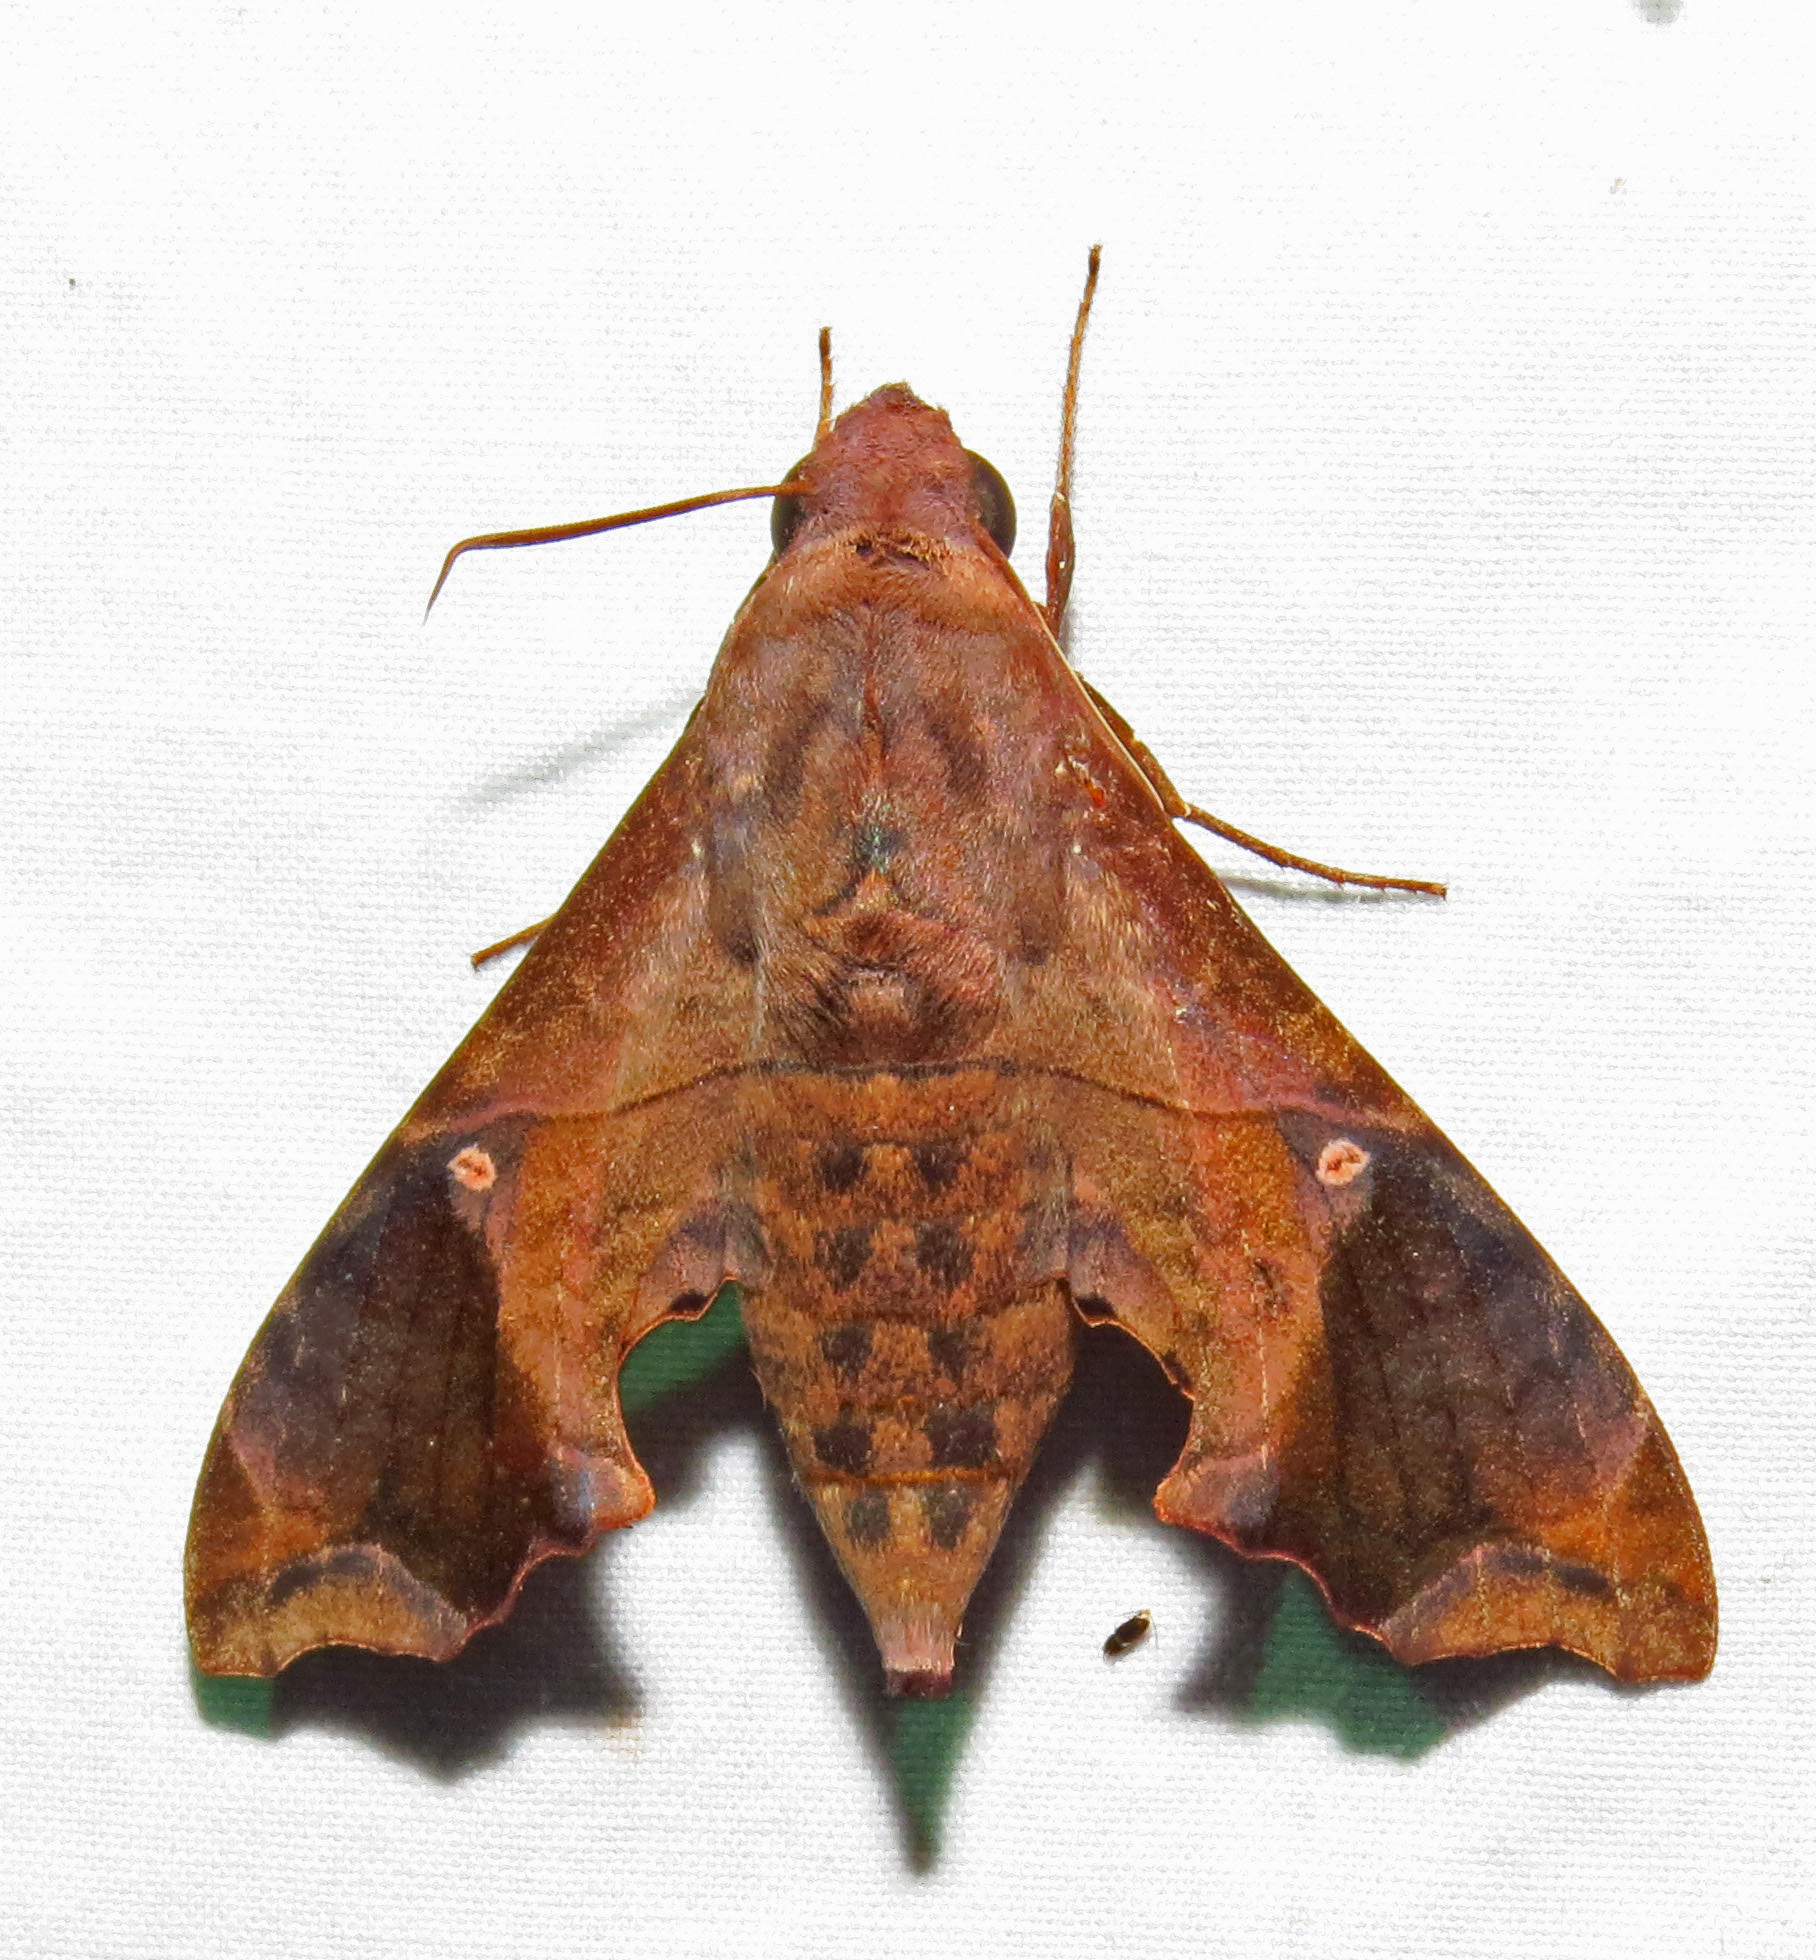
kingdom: Animalia
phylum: Arthropoda
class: Insecta
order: Lepidoptera
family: Sphingidae
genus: Enyo
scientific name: Enyo lugubris
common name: Mournful sphinx
